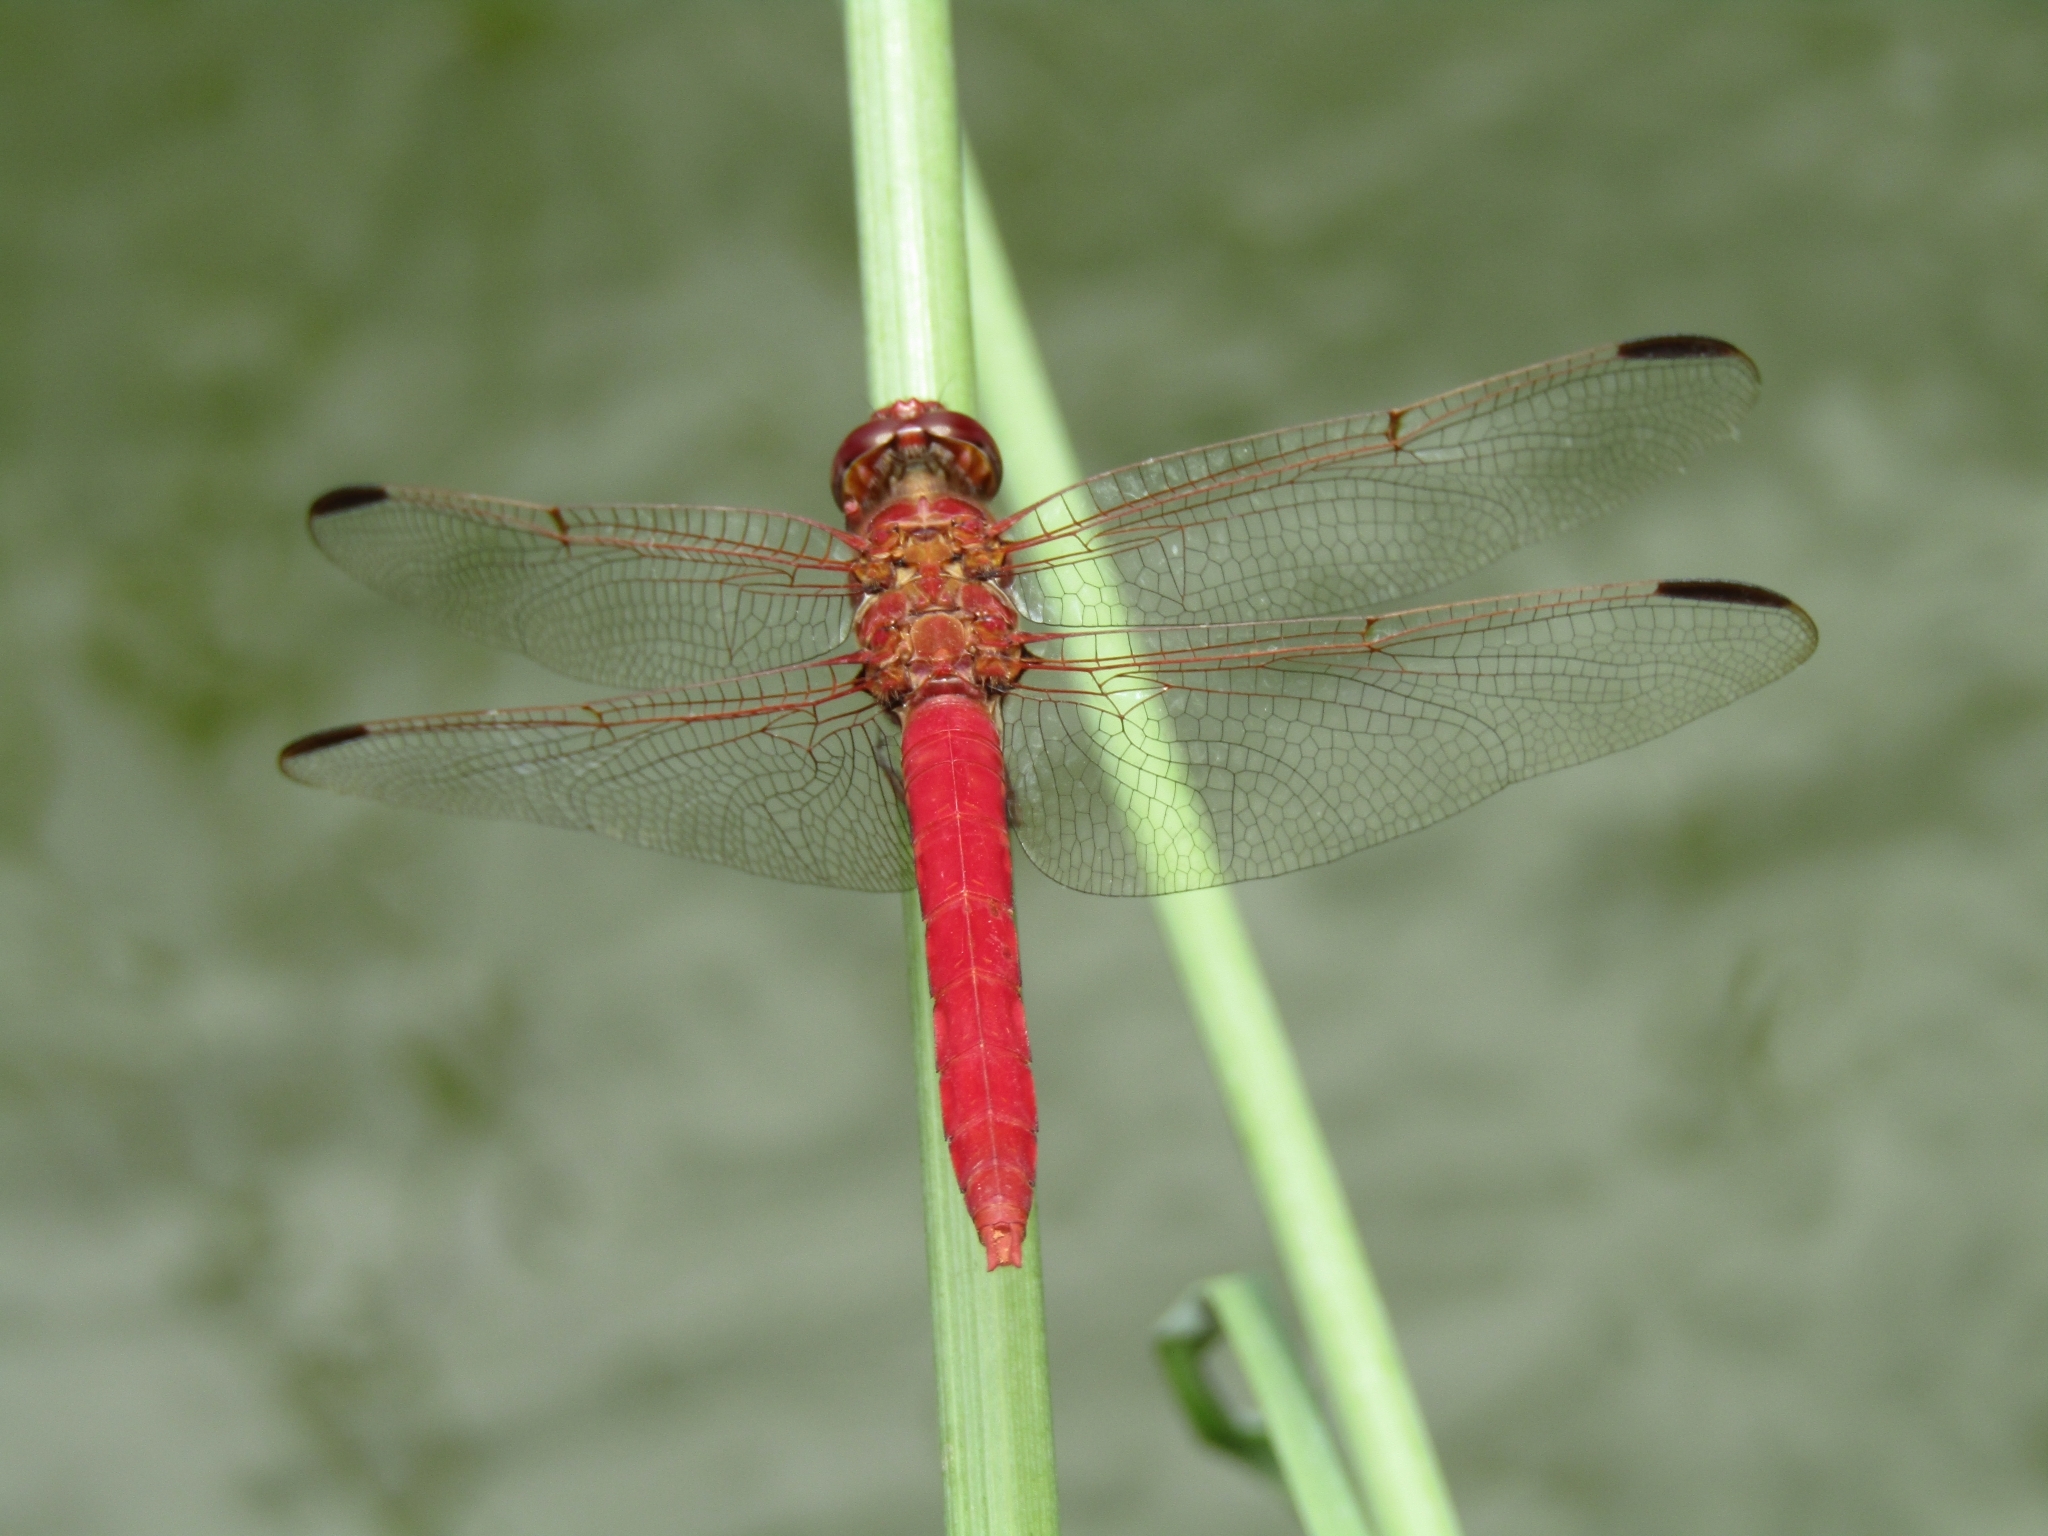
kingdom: Animalia
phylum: Arthropoda
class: Insecta
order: Odonata
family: Libellulidae
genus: Orthemis
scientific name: Orthemis nodiplaga
